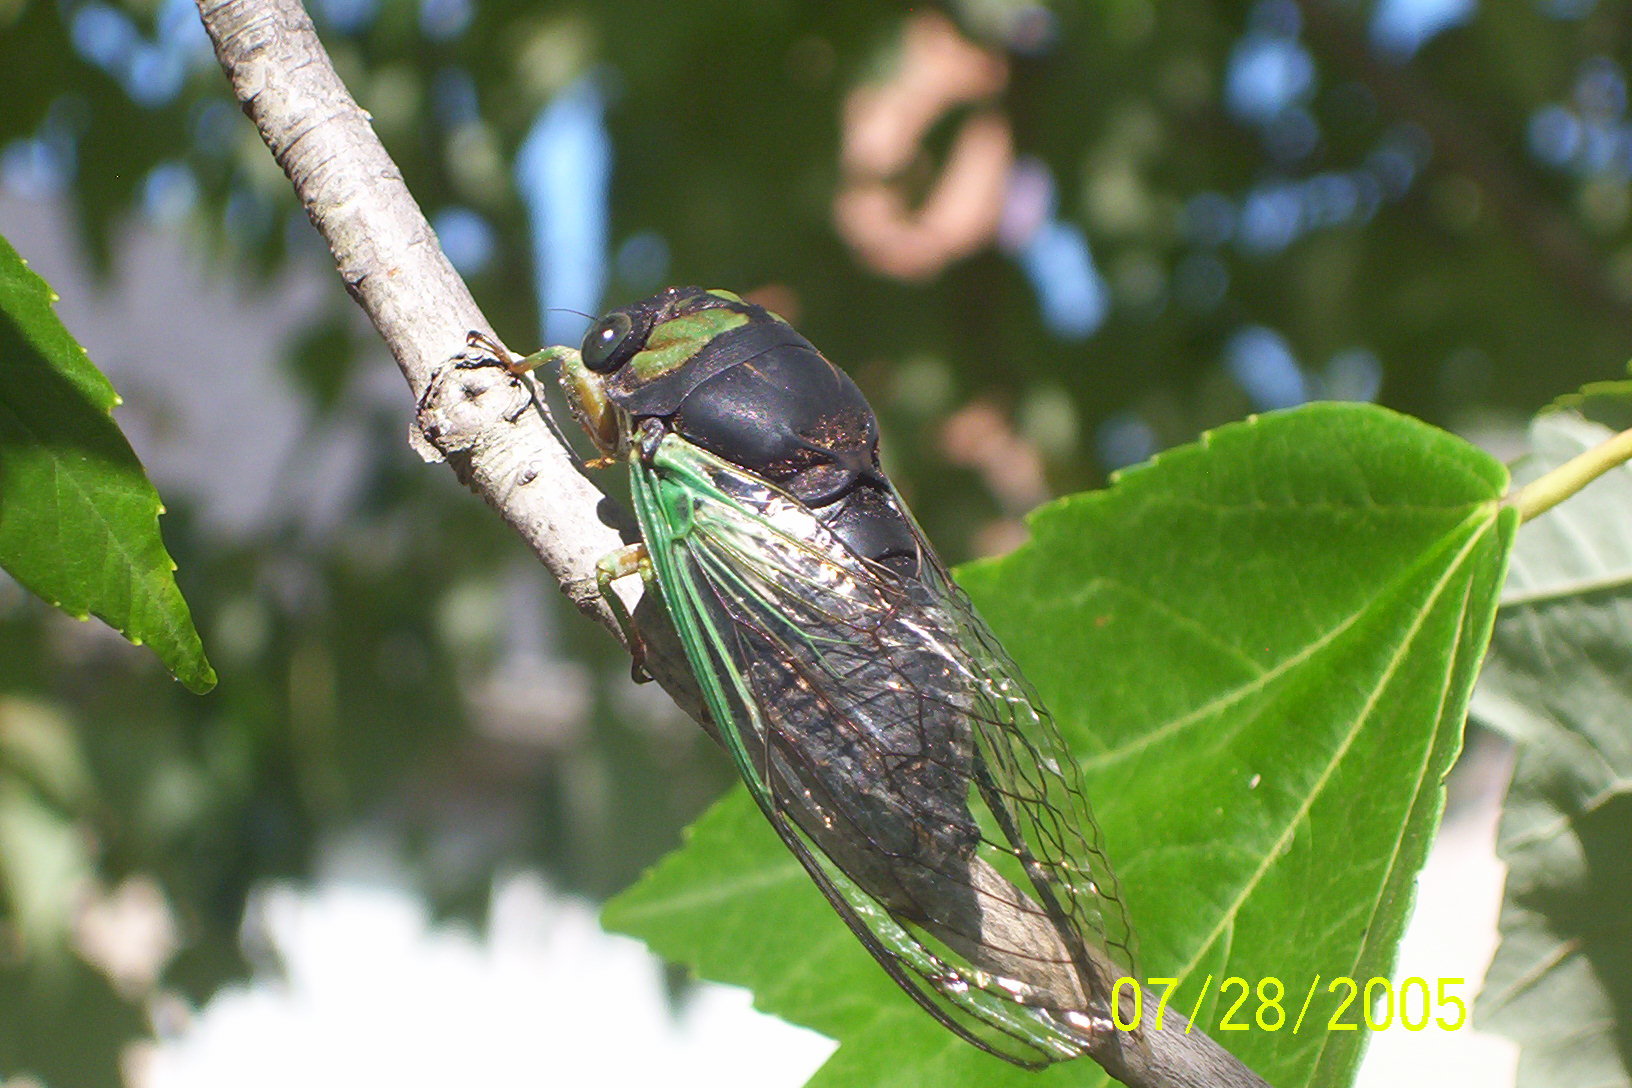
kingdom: Animalia
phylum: Arthropoda
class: Insecta
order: Hemiptera
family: Cicadidae
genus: Neotibicen
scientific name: Neotibicen tibicen
